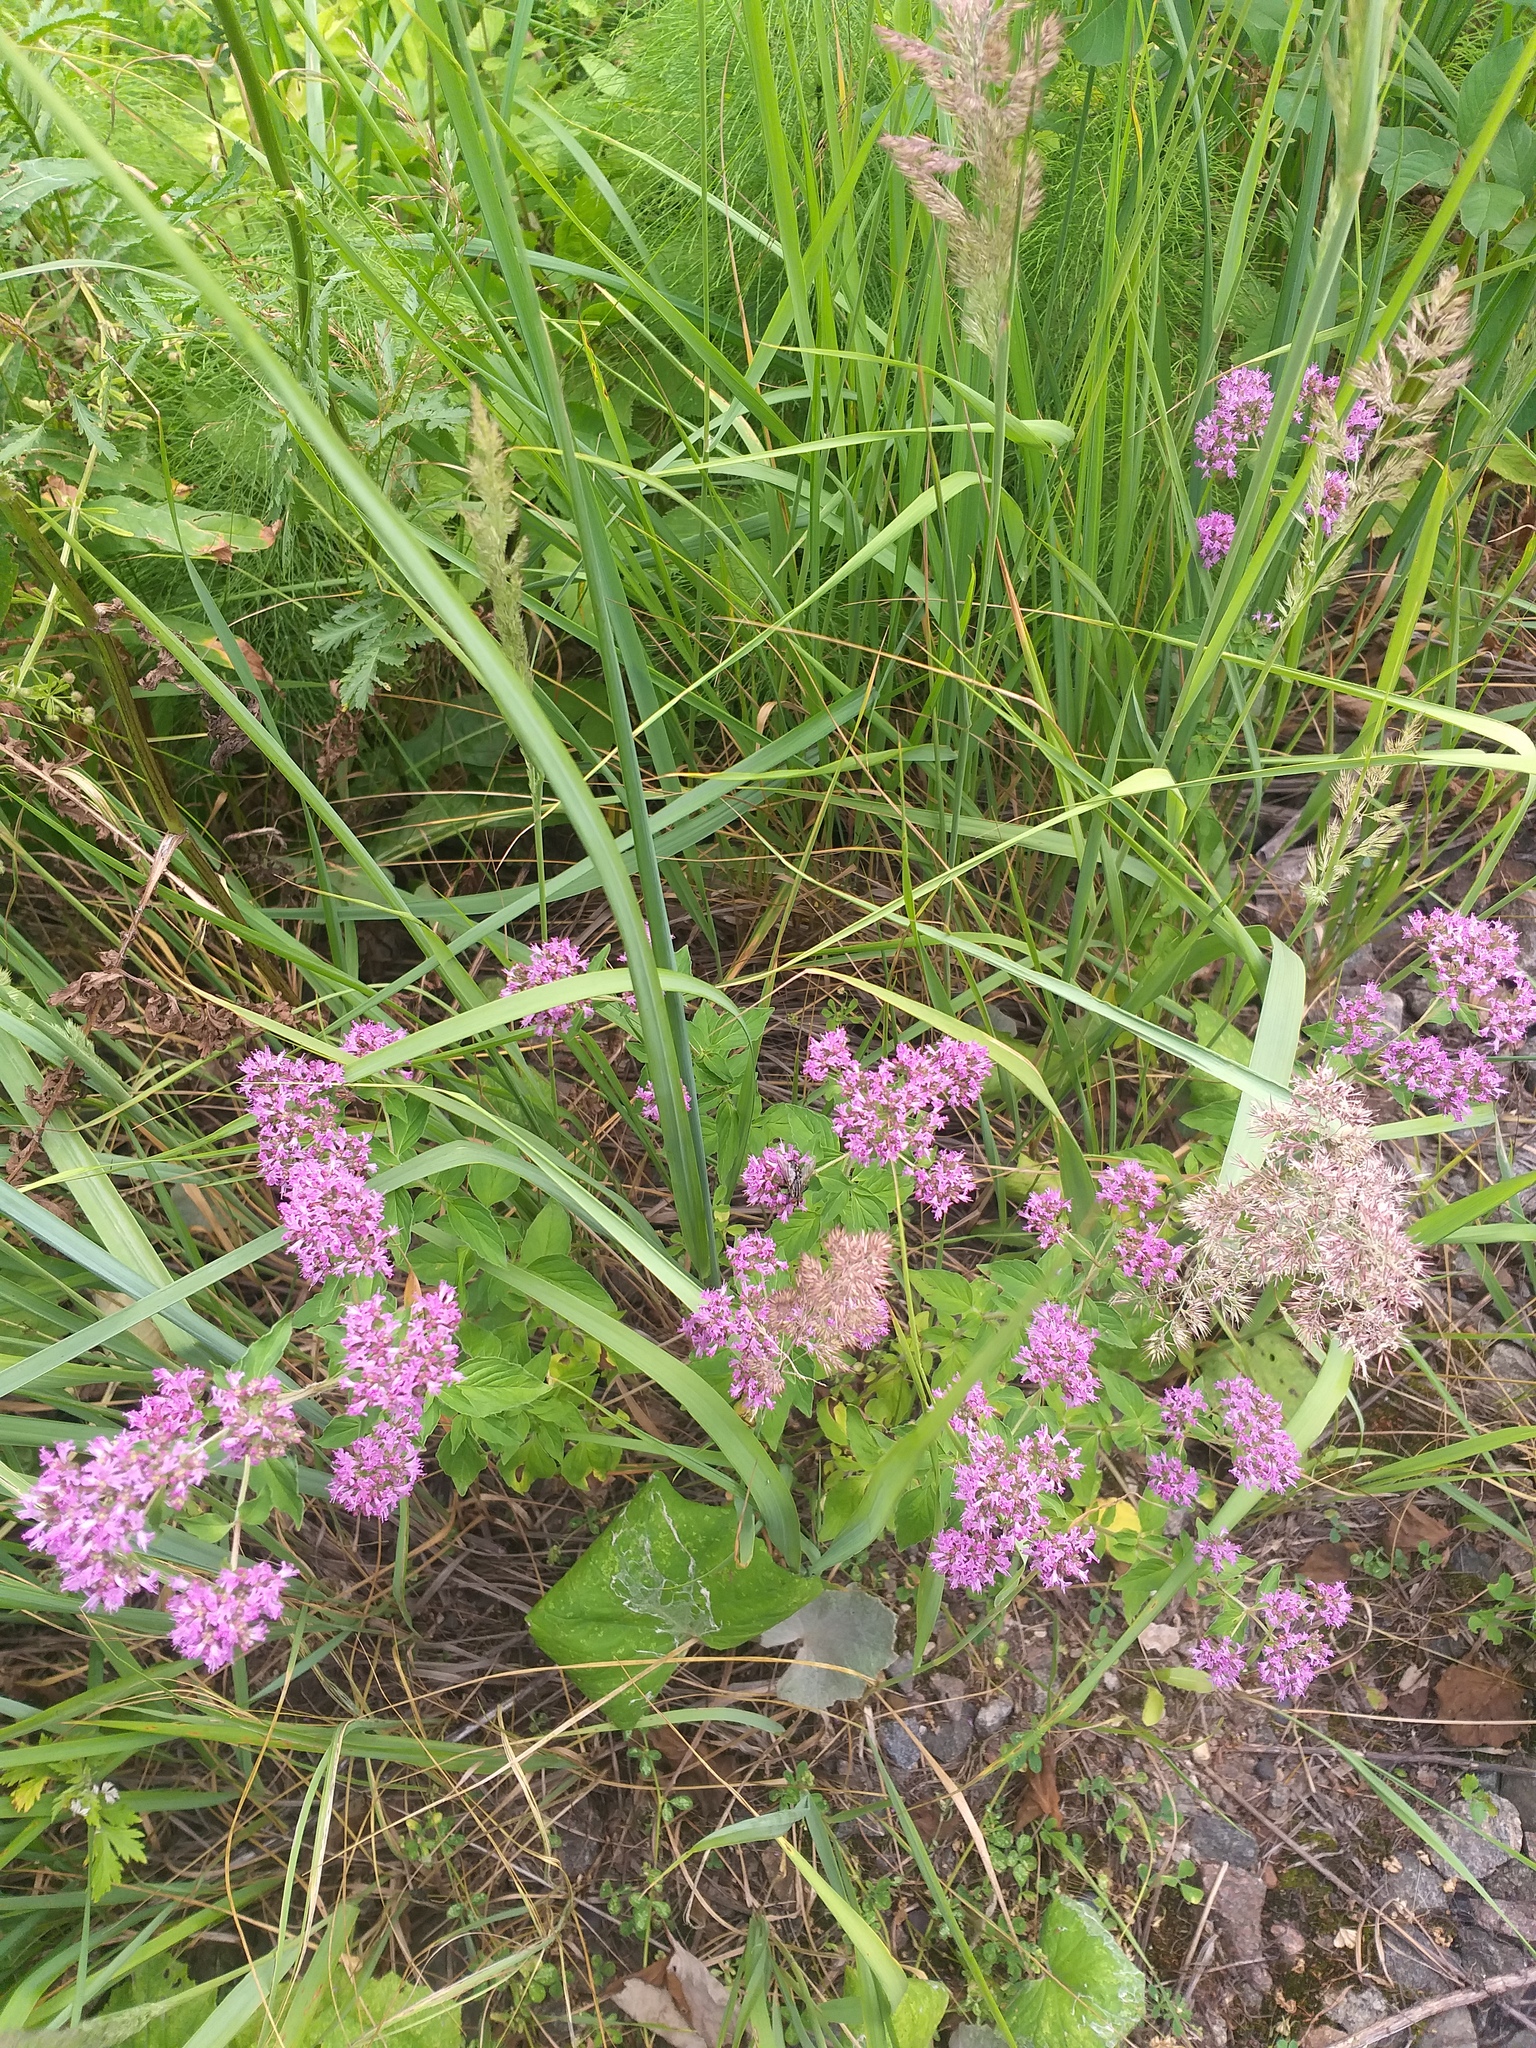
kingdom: Plantae
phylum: Tracheophyta
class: Magnoliopsida
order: Lamiales
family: Lamiaceae
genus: Origanum
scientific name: Origanum vulgare
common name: Wild marjoram
